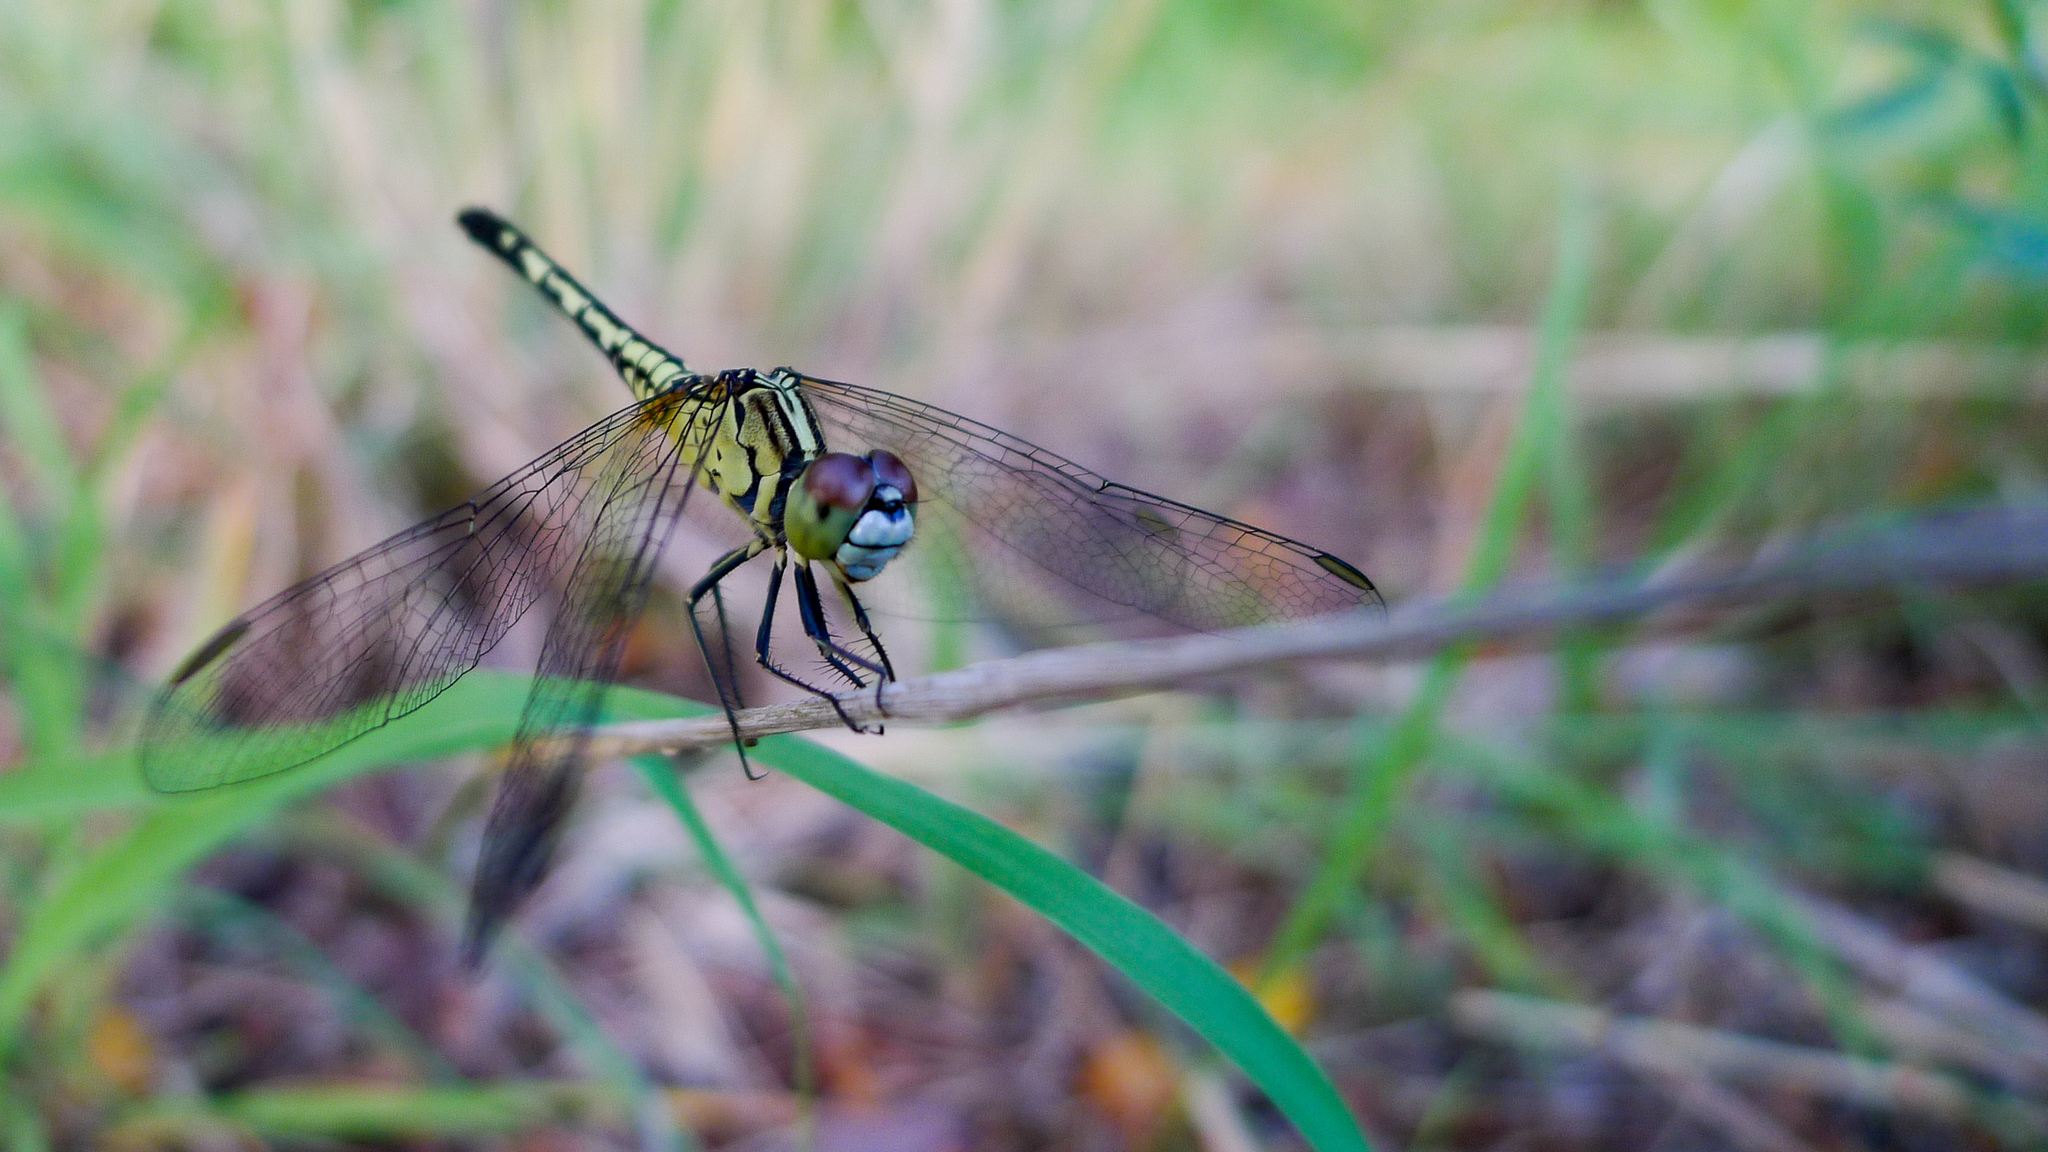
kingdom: Animalia
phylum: Arthropoda
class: Insecta
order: Odonata
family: Libellulidae
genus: Diplacodes
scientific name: Diplacodes trivialis
